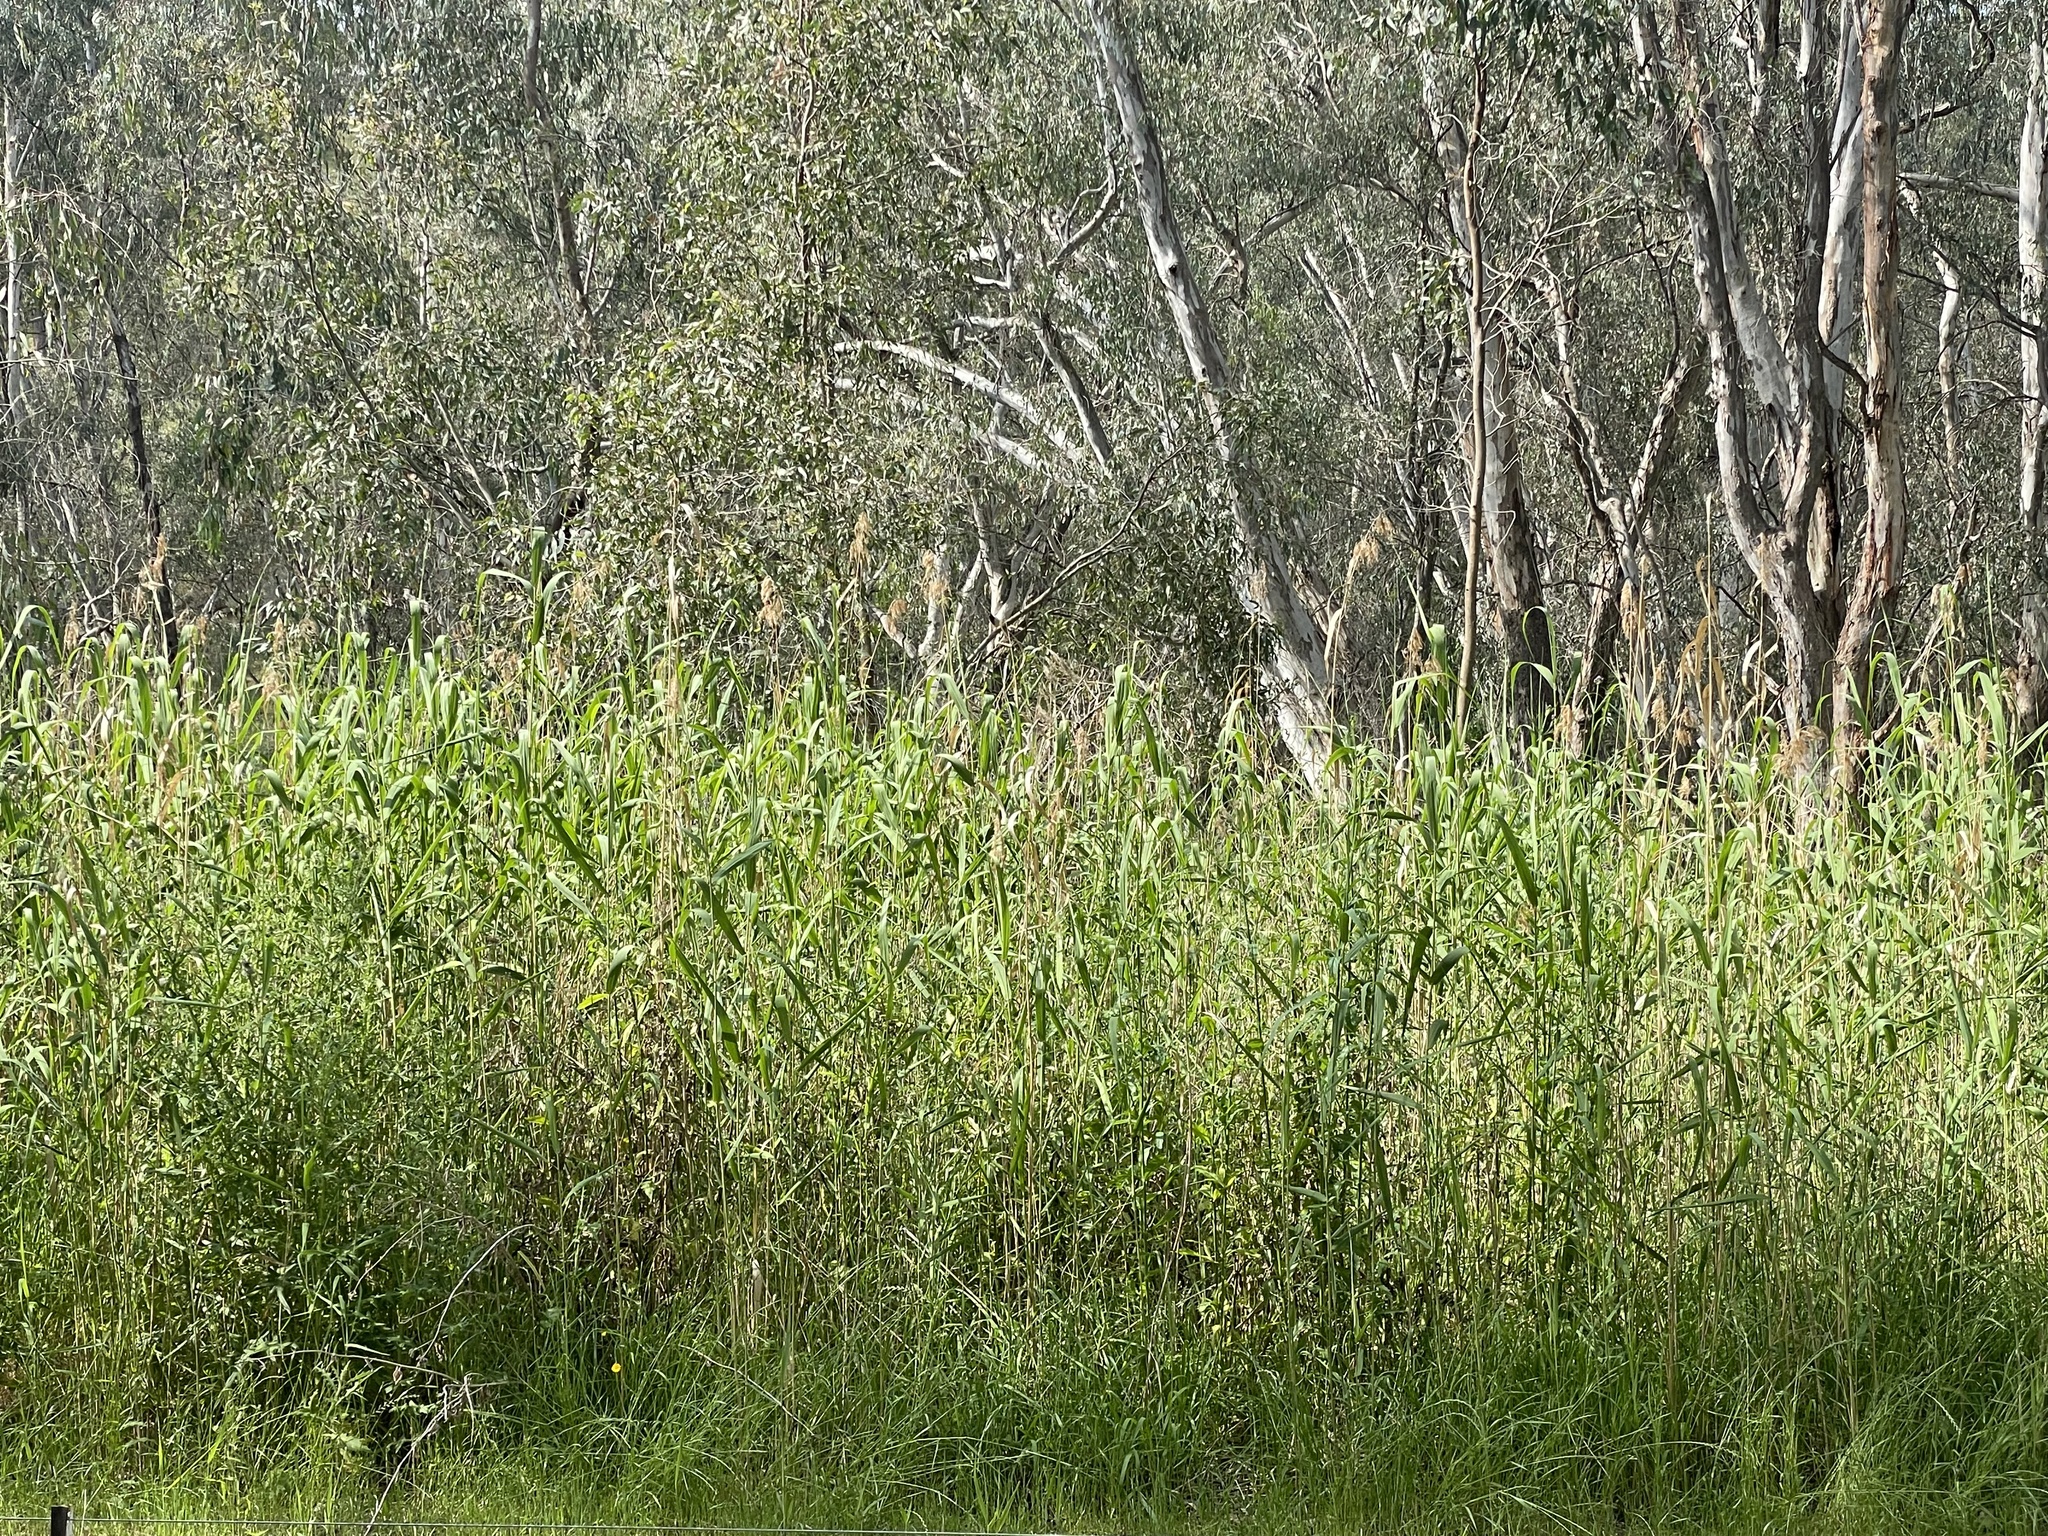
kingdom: Plantae
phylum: Tracheophyta
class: Liliopsida
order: Poales
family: Poaceae
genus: Phragmites
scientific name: Phragmites australis
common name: Common reed
